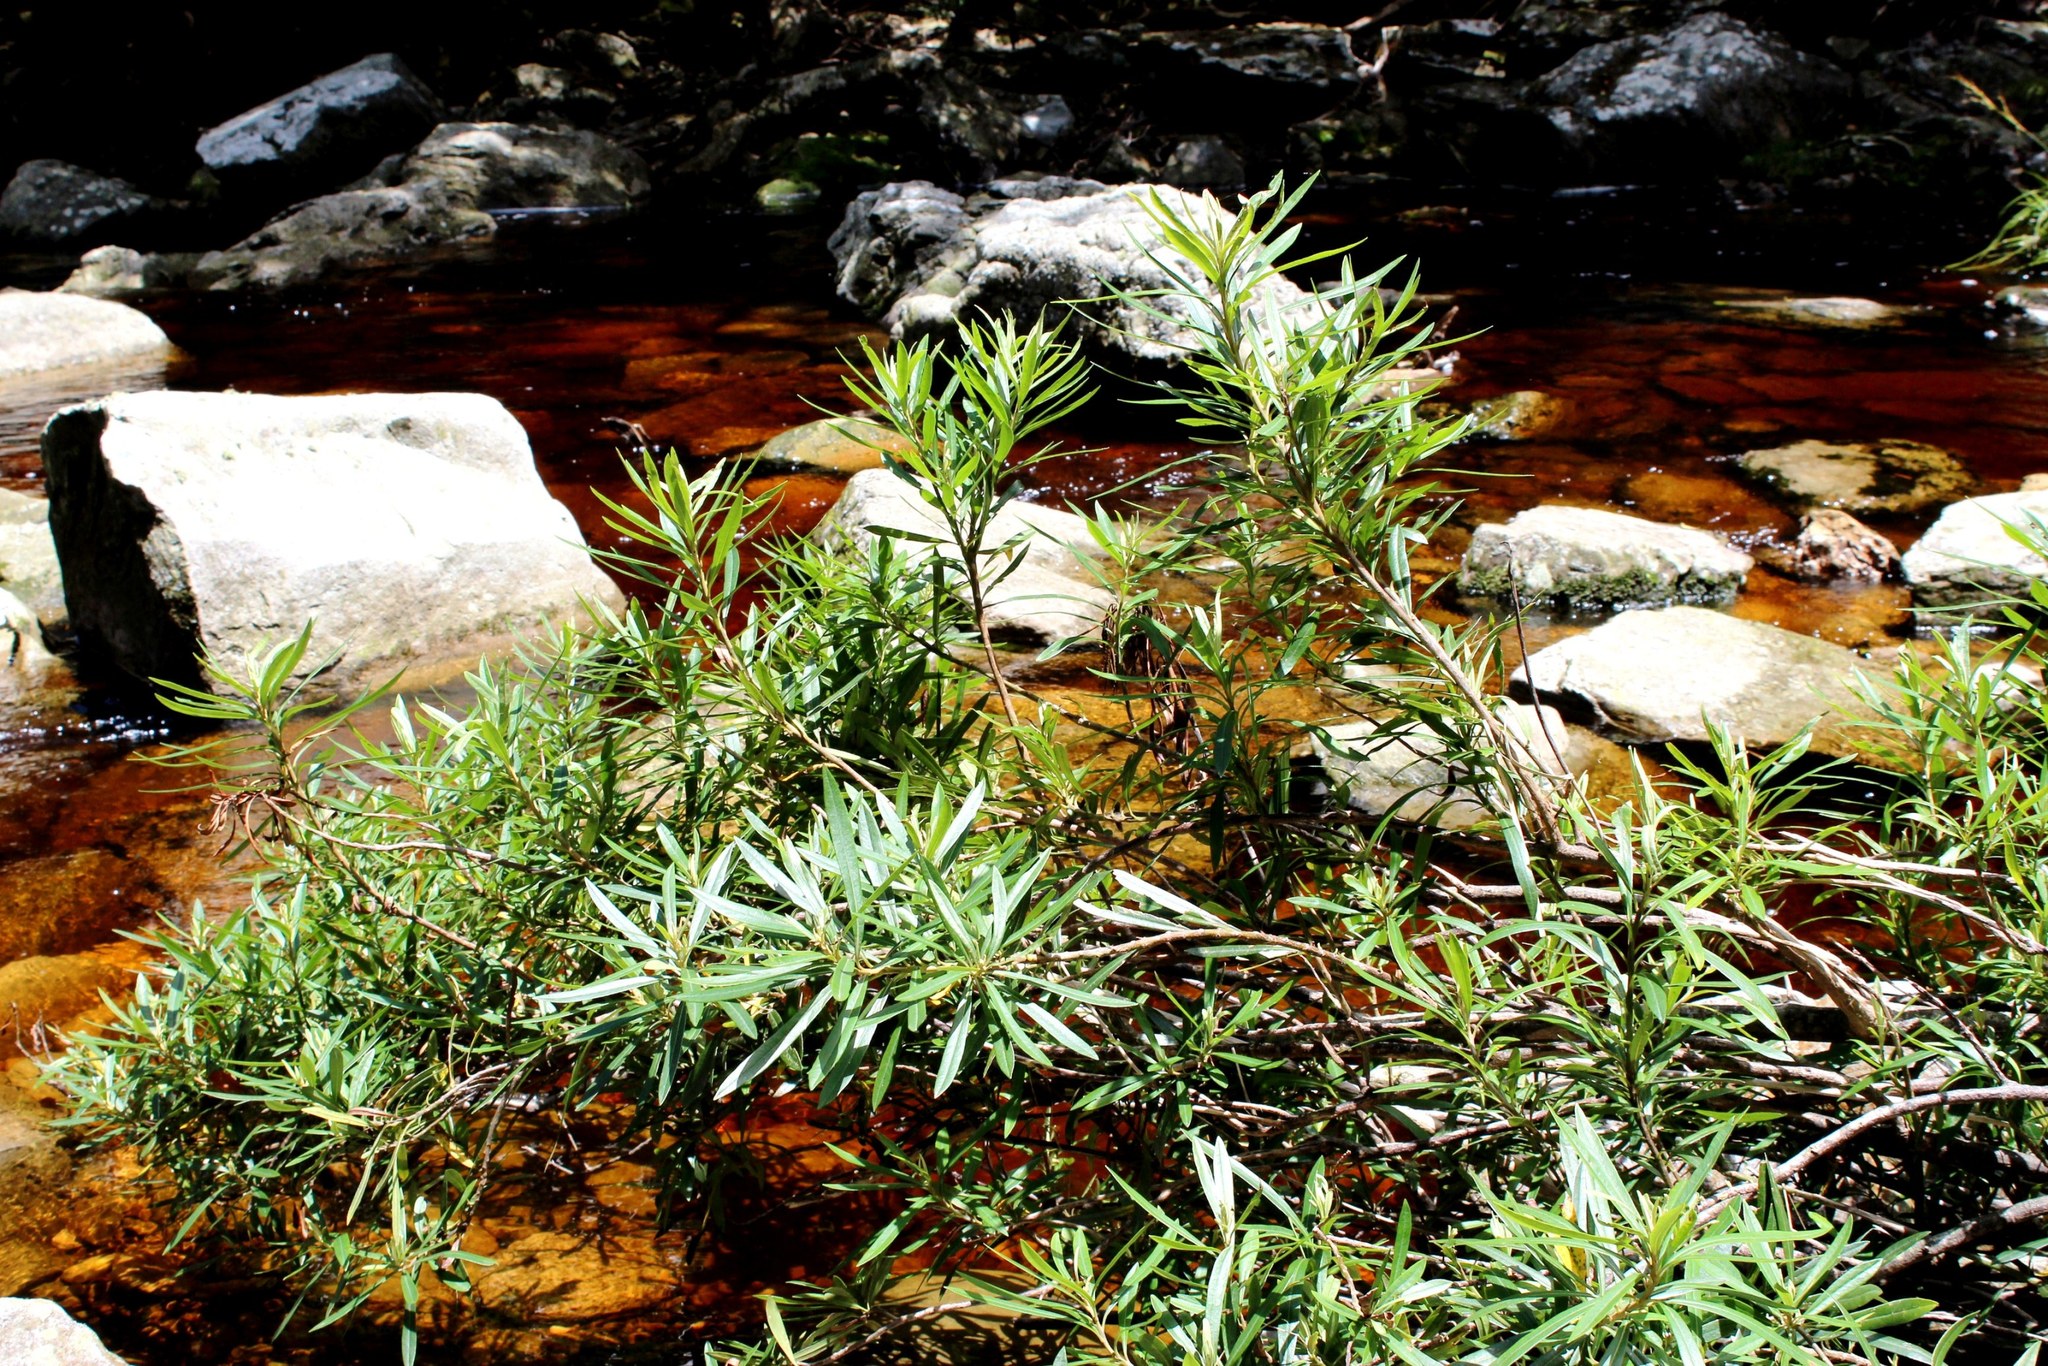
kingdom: Plantae
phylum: Tracheophyta
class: Magnoliopsida
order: Asterales
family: Asteraceae
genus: Brachylaena
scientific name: Brachylaena neriifolia
